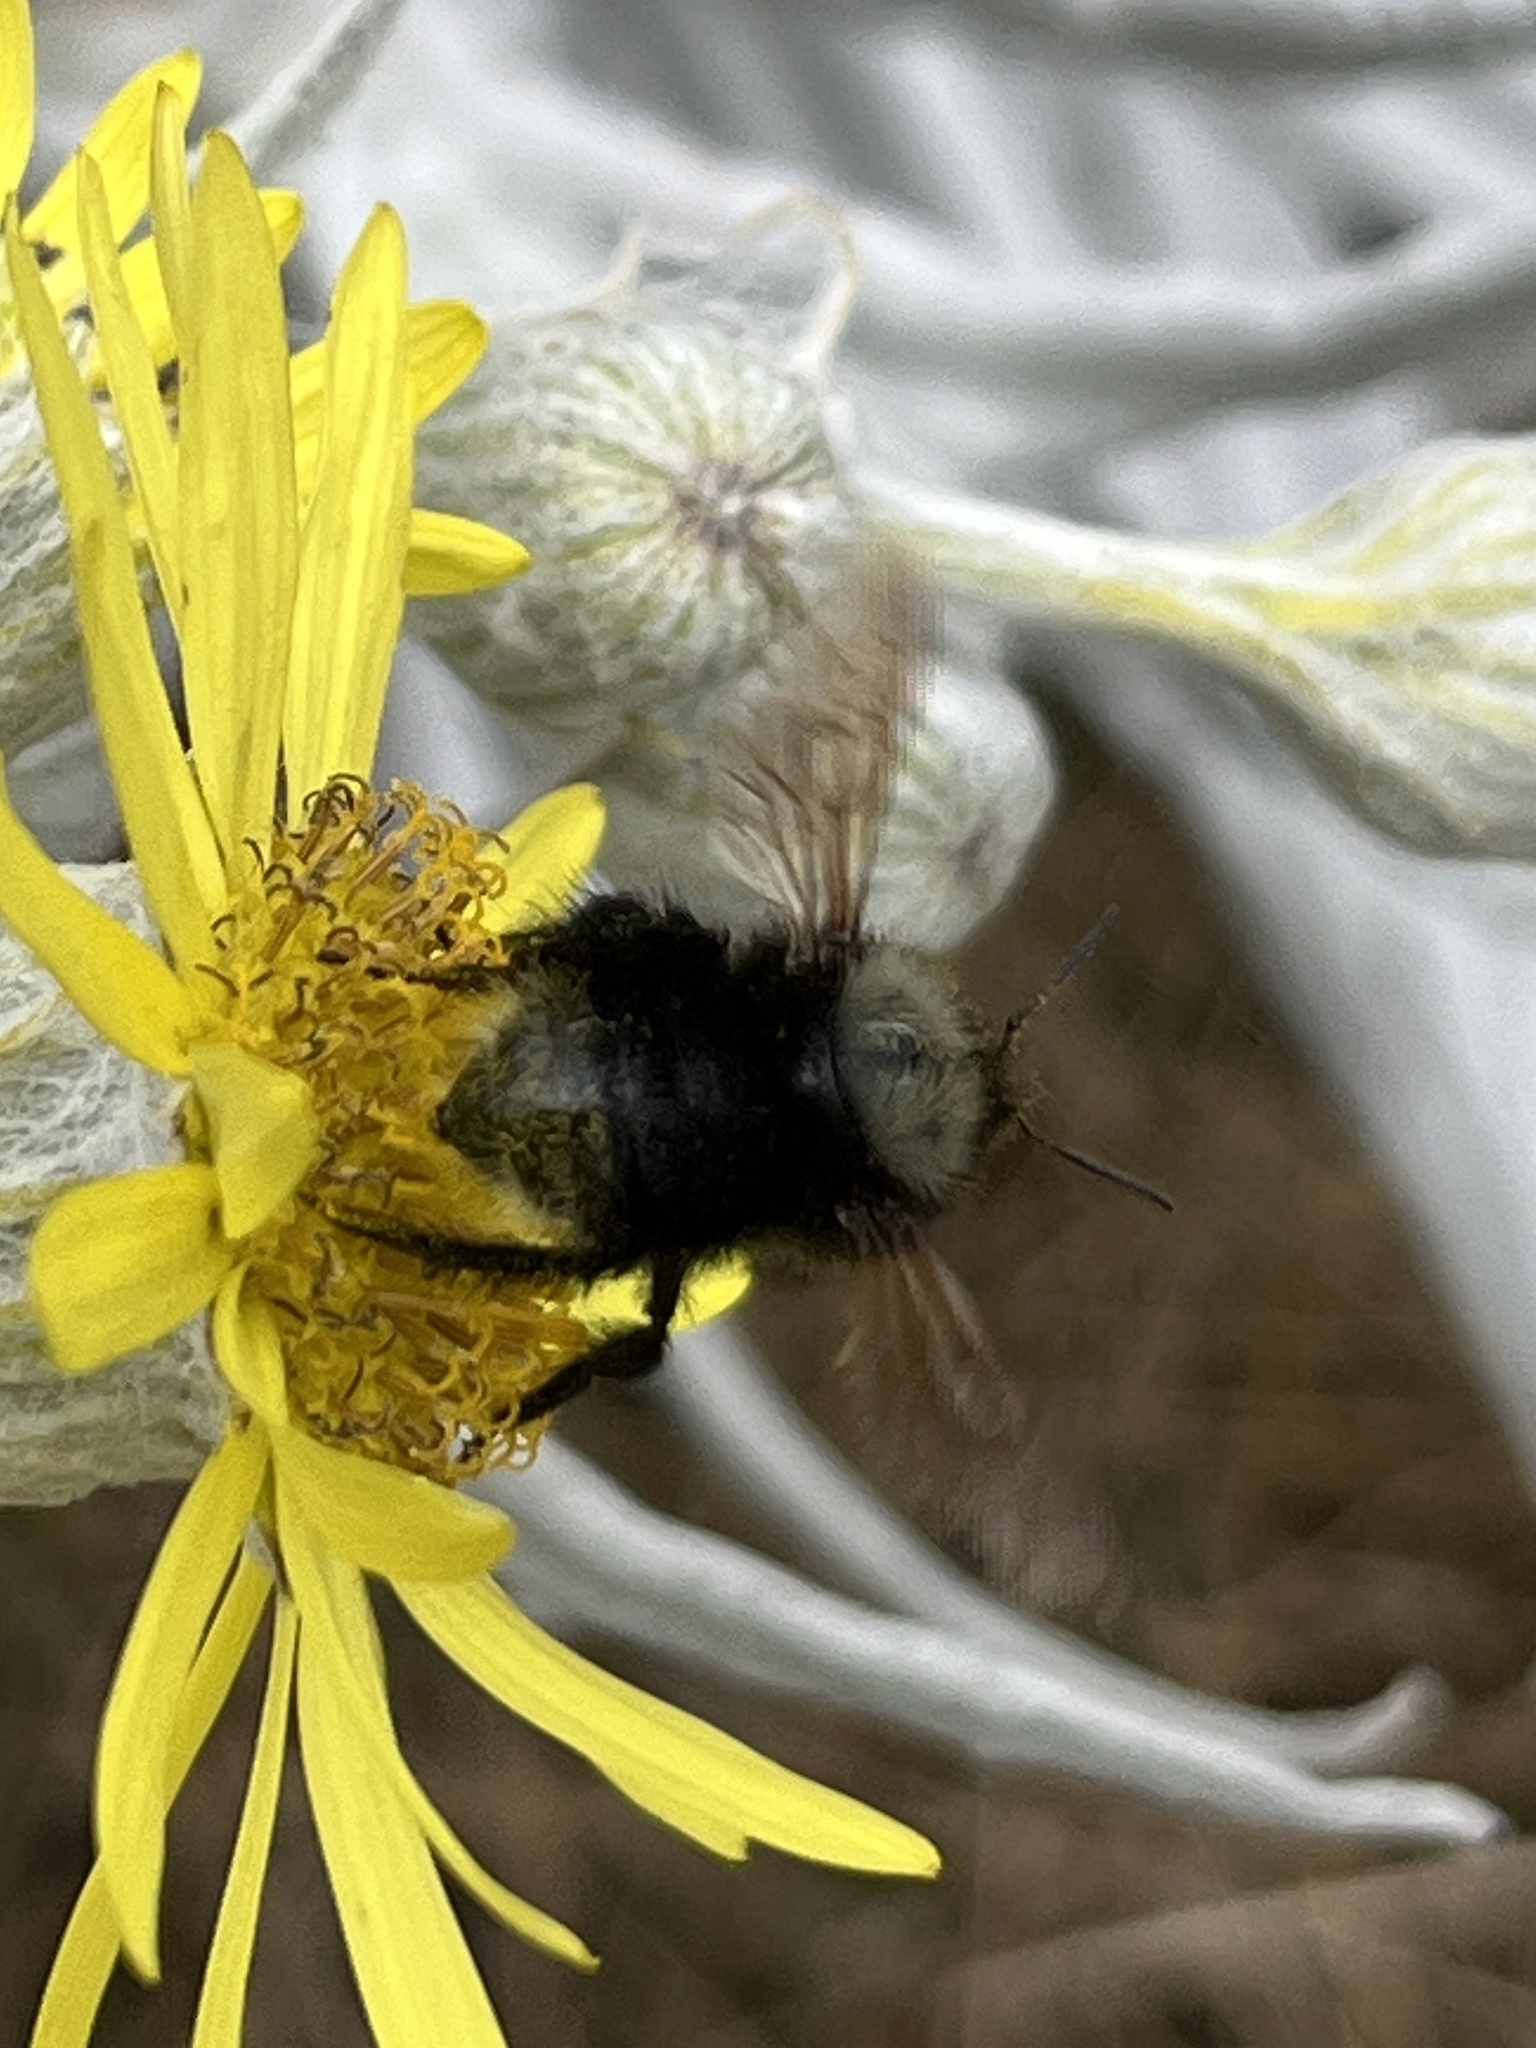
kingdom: Animalia
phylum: Arthropoda
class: Insecta
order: Hymenoptera
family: Apidae
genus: Bombus
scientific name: Bombus funebris
